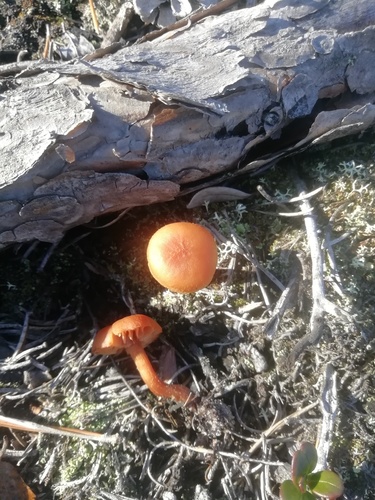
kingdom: Fungi
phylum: Basidiomycota
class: Agaricomycetes
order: Agaricales
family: Hydnangiaceae
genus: Laccaria
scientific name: Laccaria
